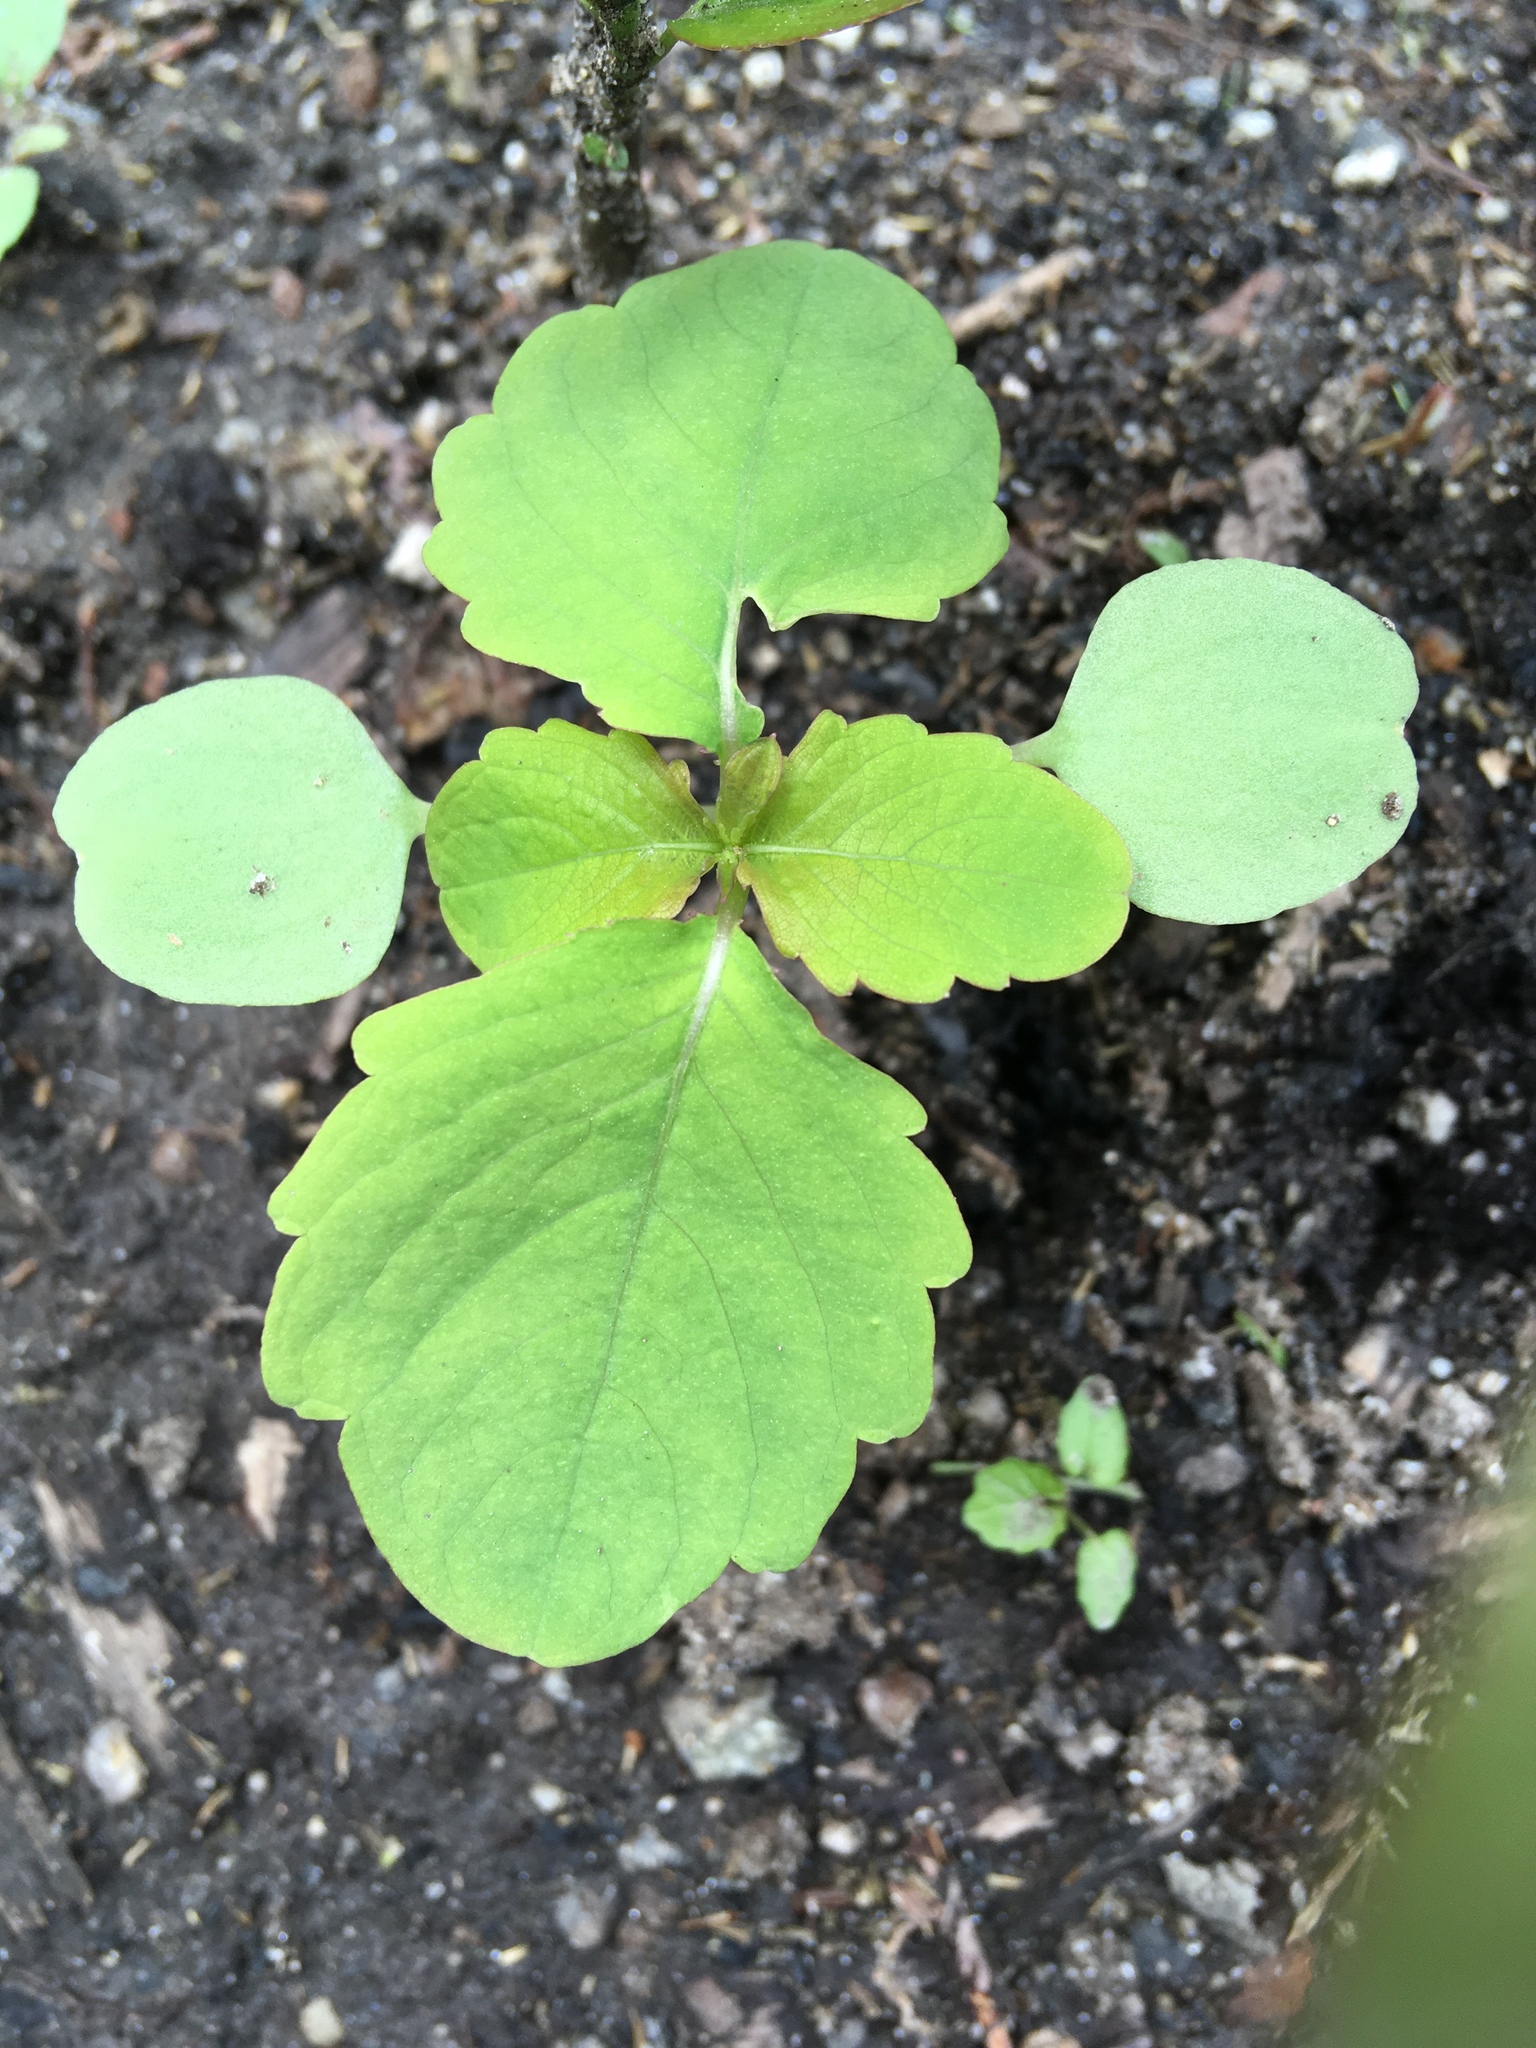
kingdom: Plantae
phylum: Tracheophyta
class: Magnoliopsida
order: Ericales
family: Balsaminaceae
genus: Impatiens
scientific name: Impatiens capensis
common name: Orange balsam
